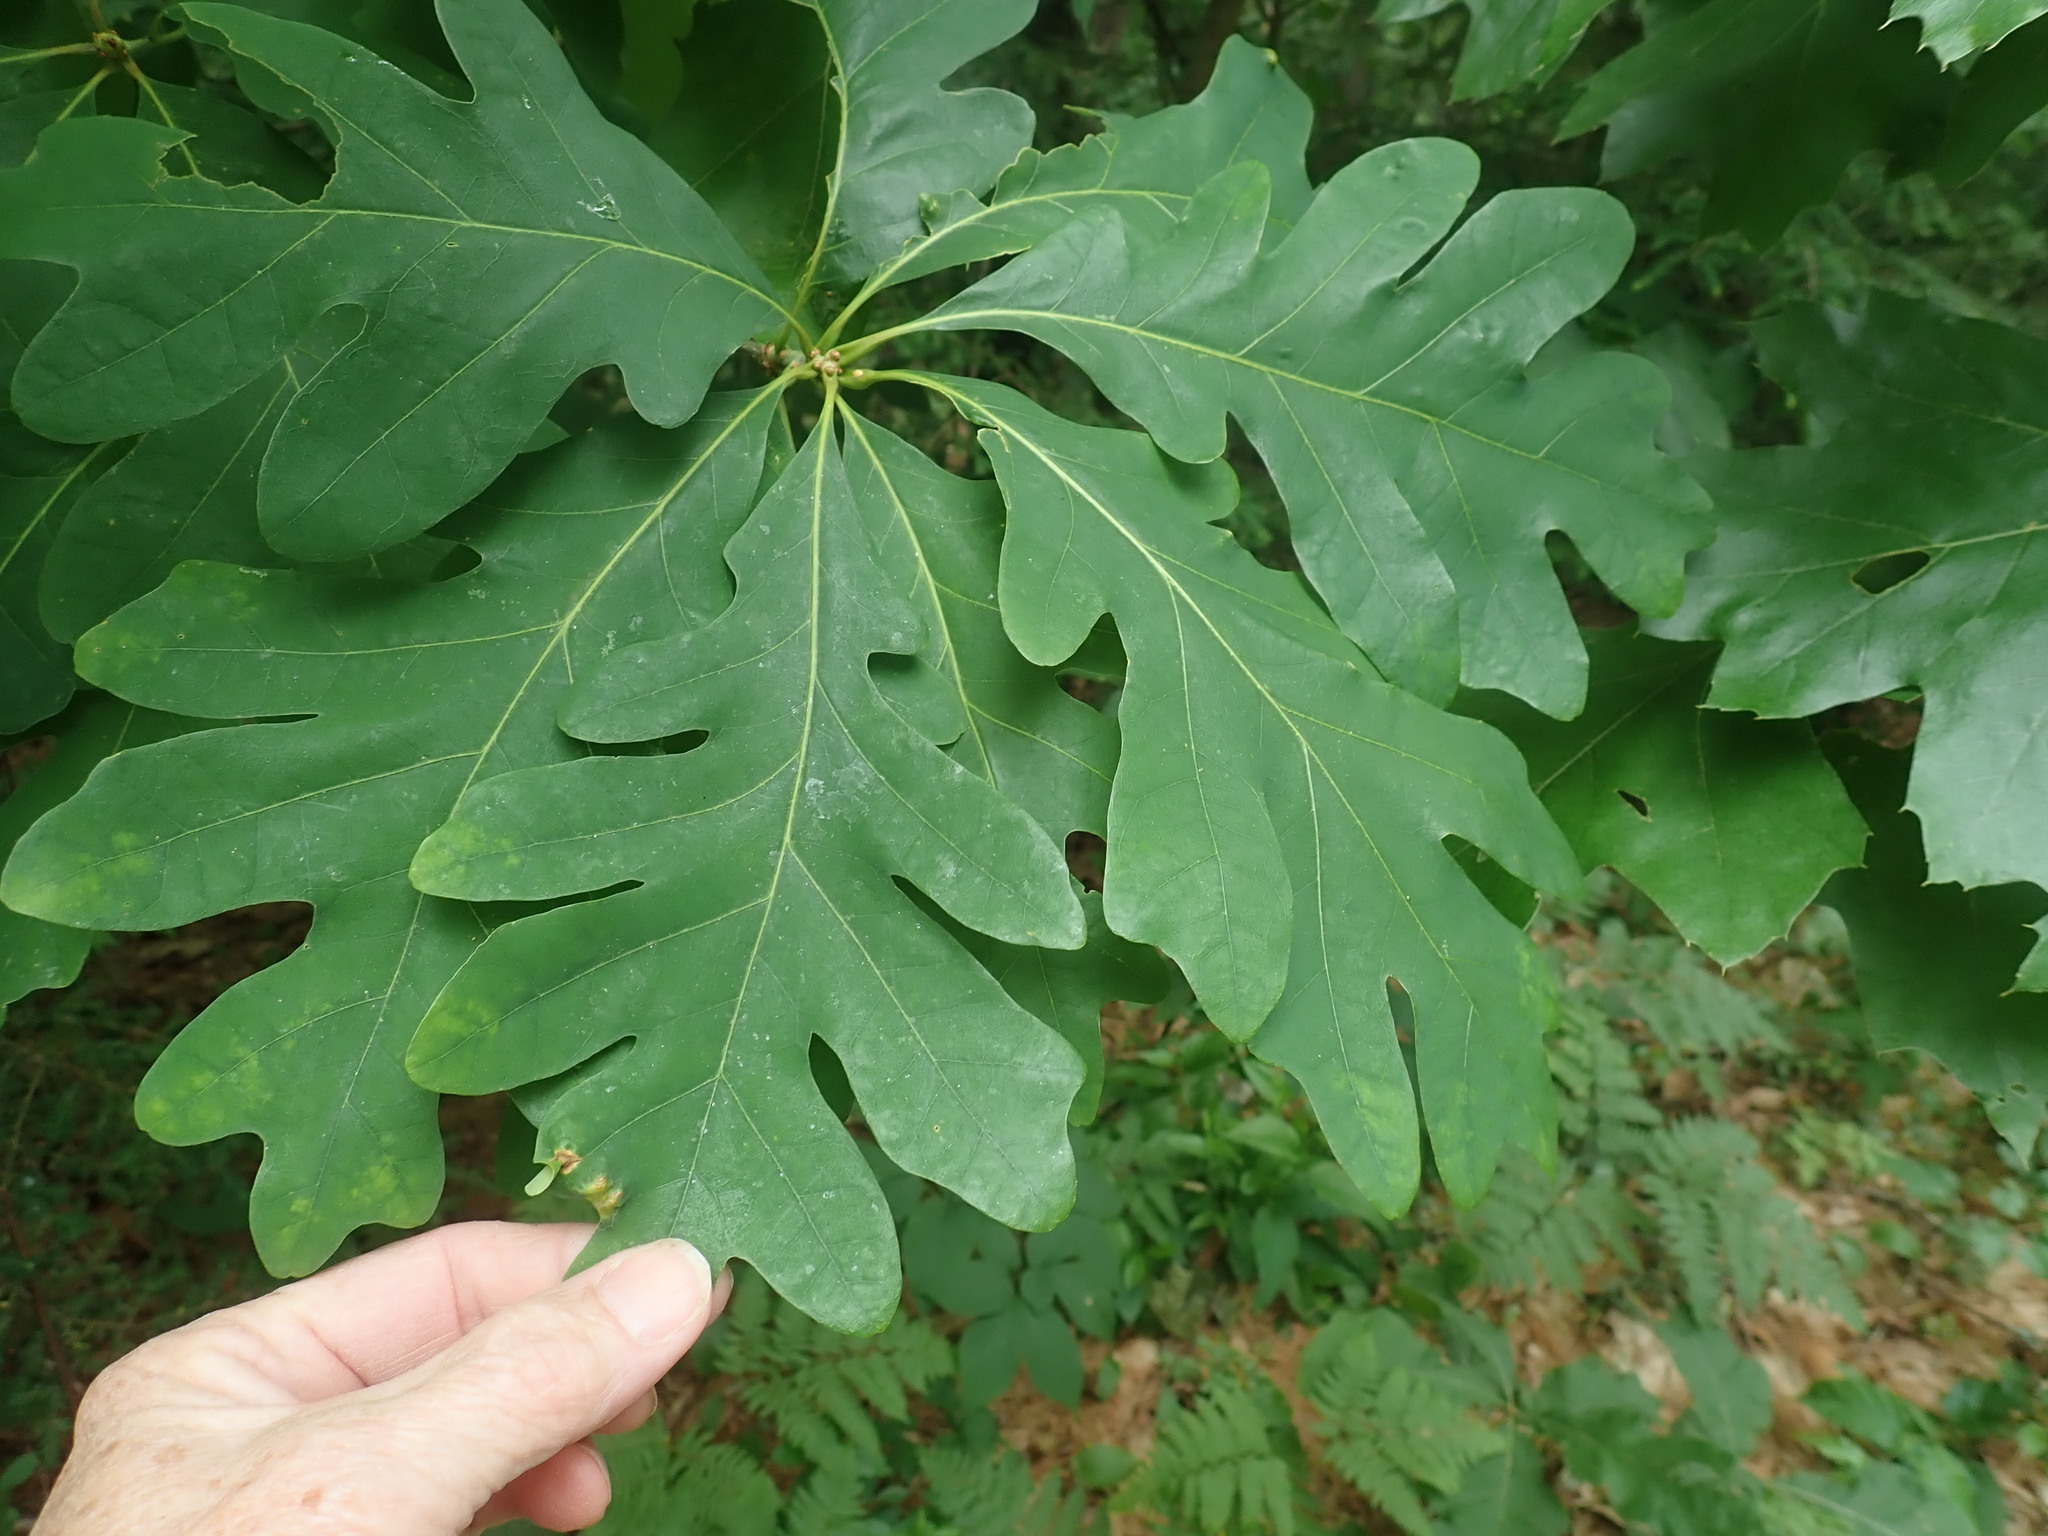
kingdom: Plantae
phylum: Tracheophyta
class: Magnoliopsida
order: Fagales
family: Fagaceae
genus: Quercus
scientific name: Quercus alba
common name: White oak
